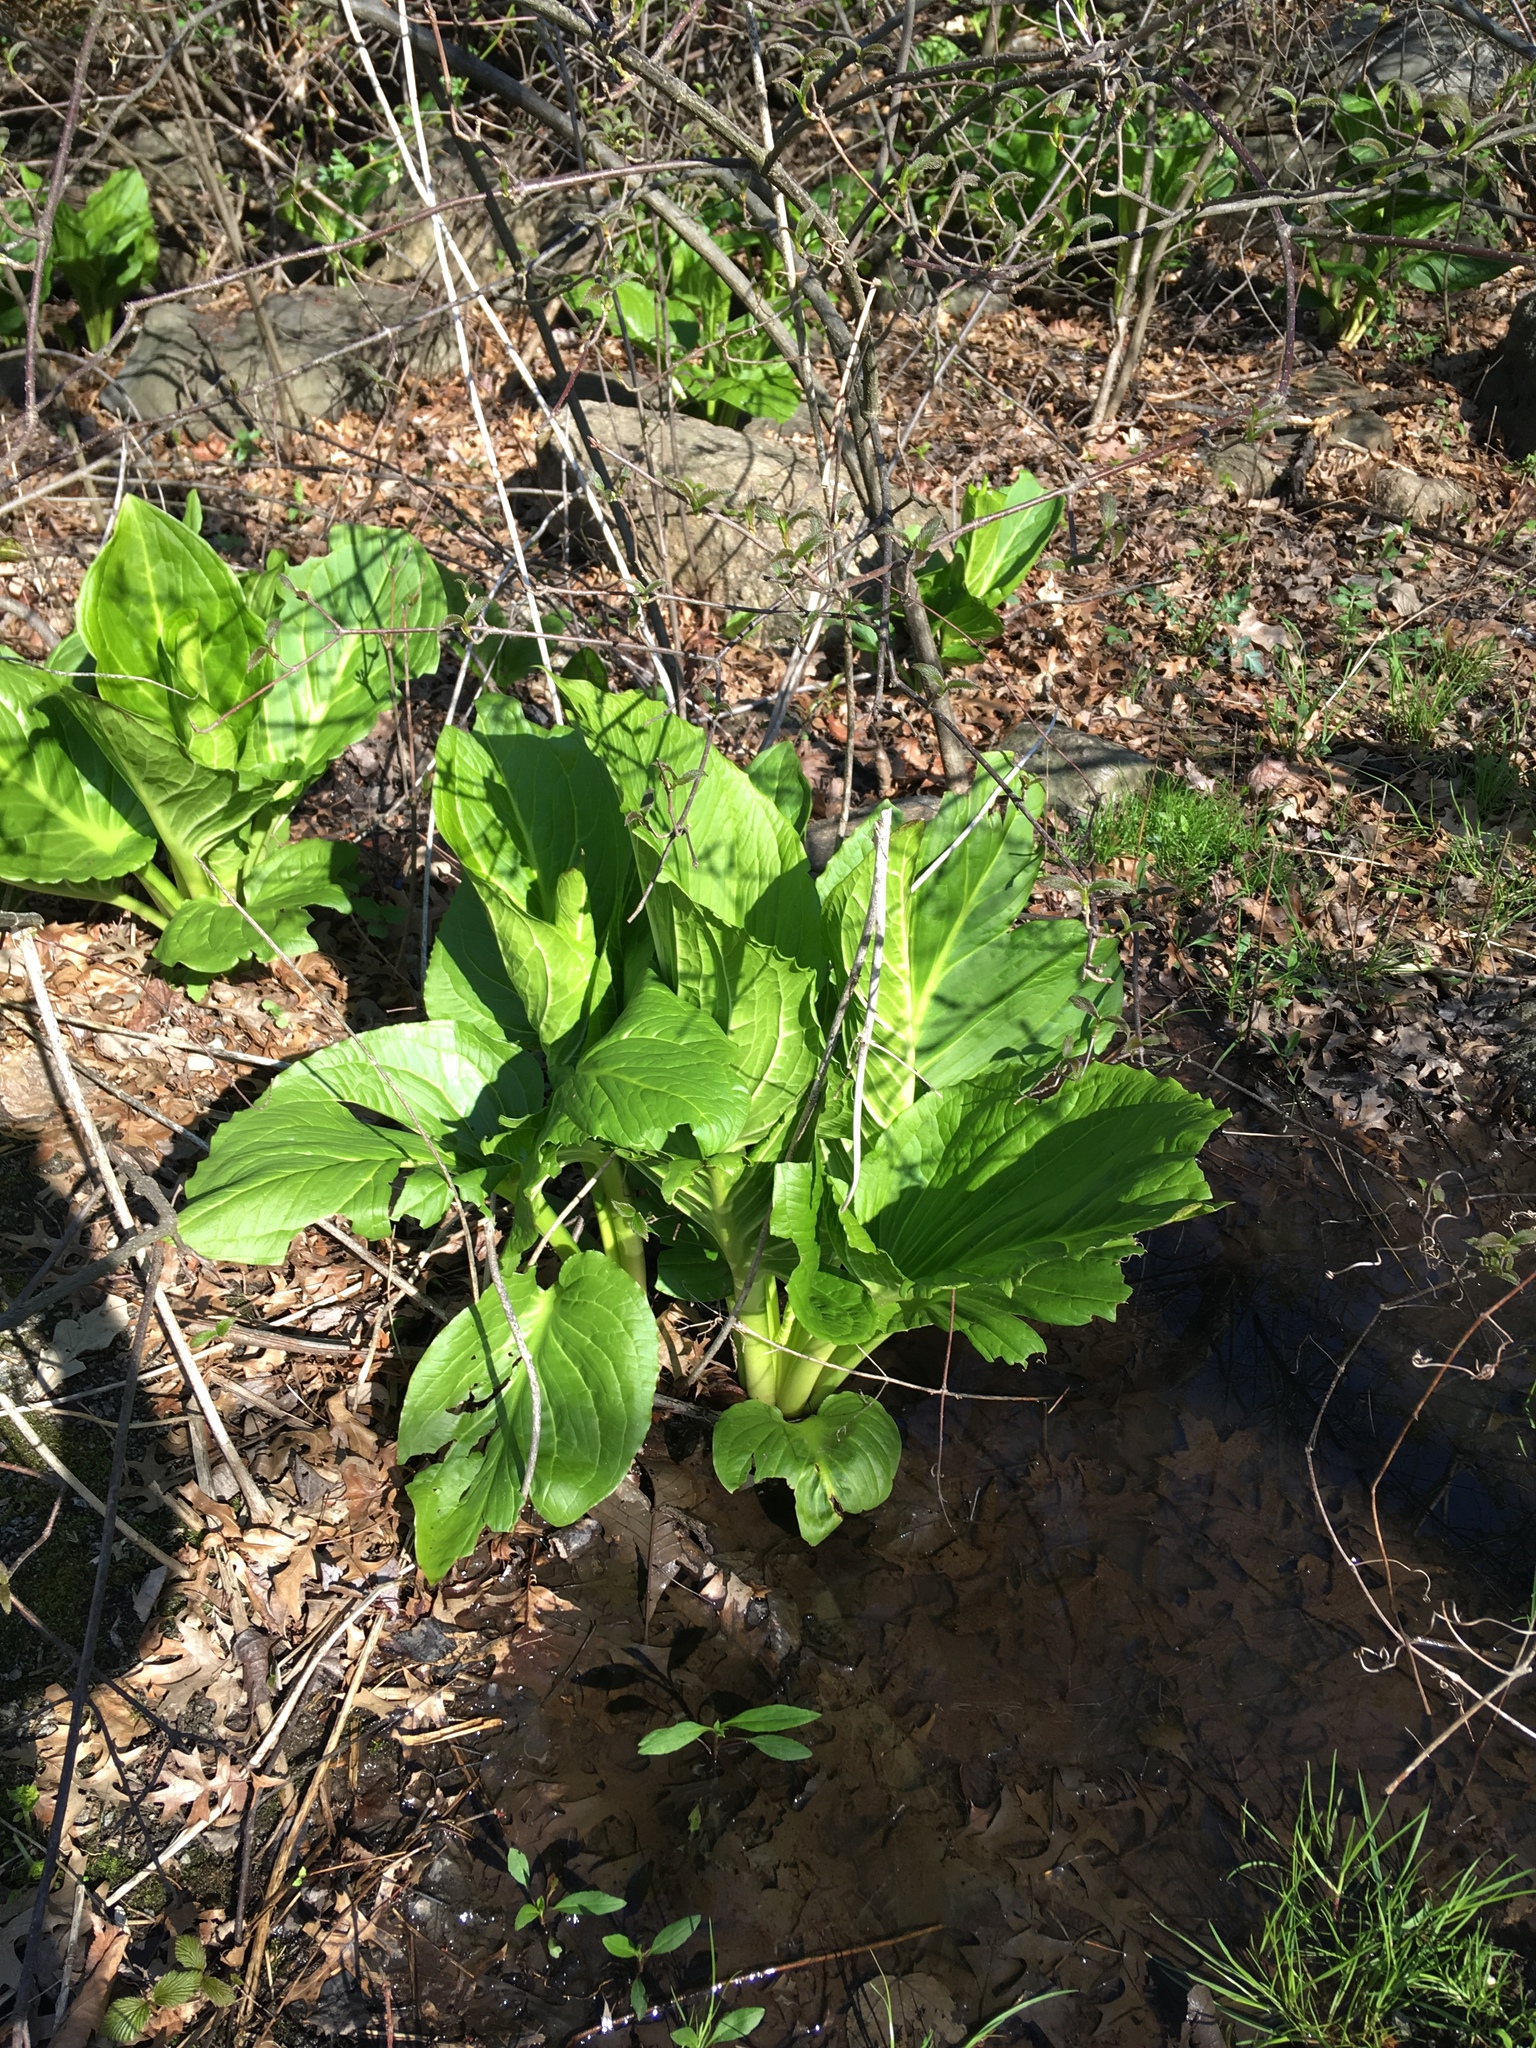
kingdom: Plantae
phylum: Tracheophyta
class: Liliopsida
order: Alismatales
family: Araceae
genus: Symplocarpus
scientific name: Symplocarpus foetidus
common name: Eastern skunk cabbage
